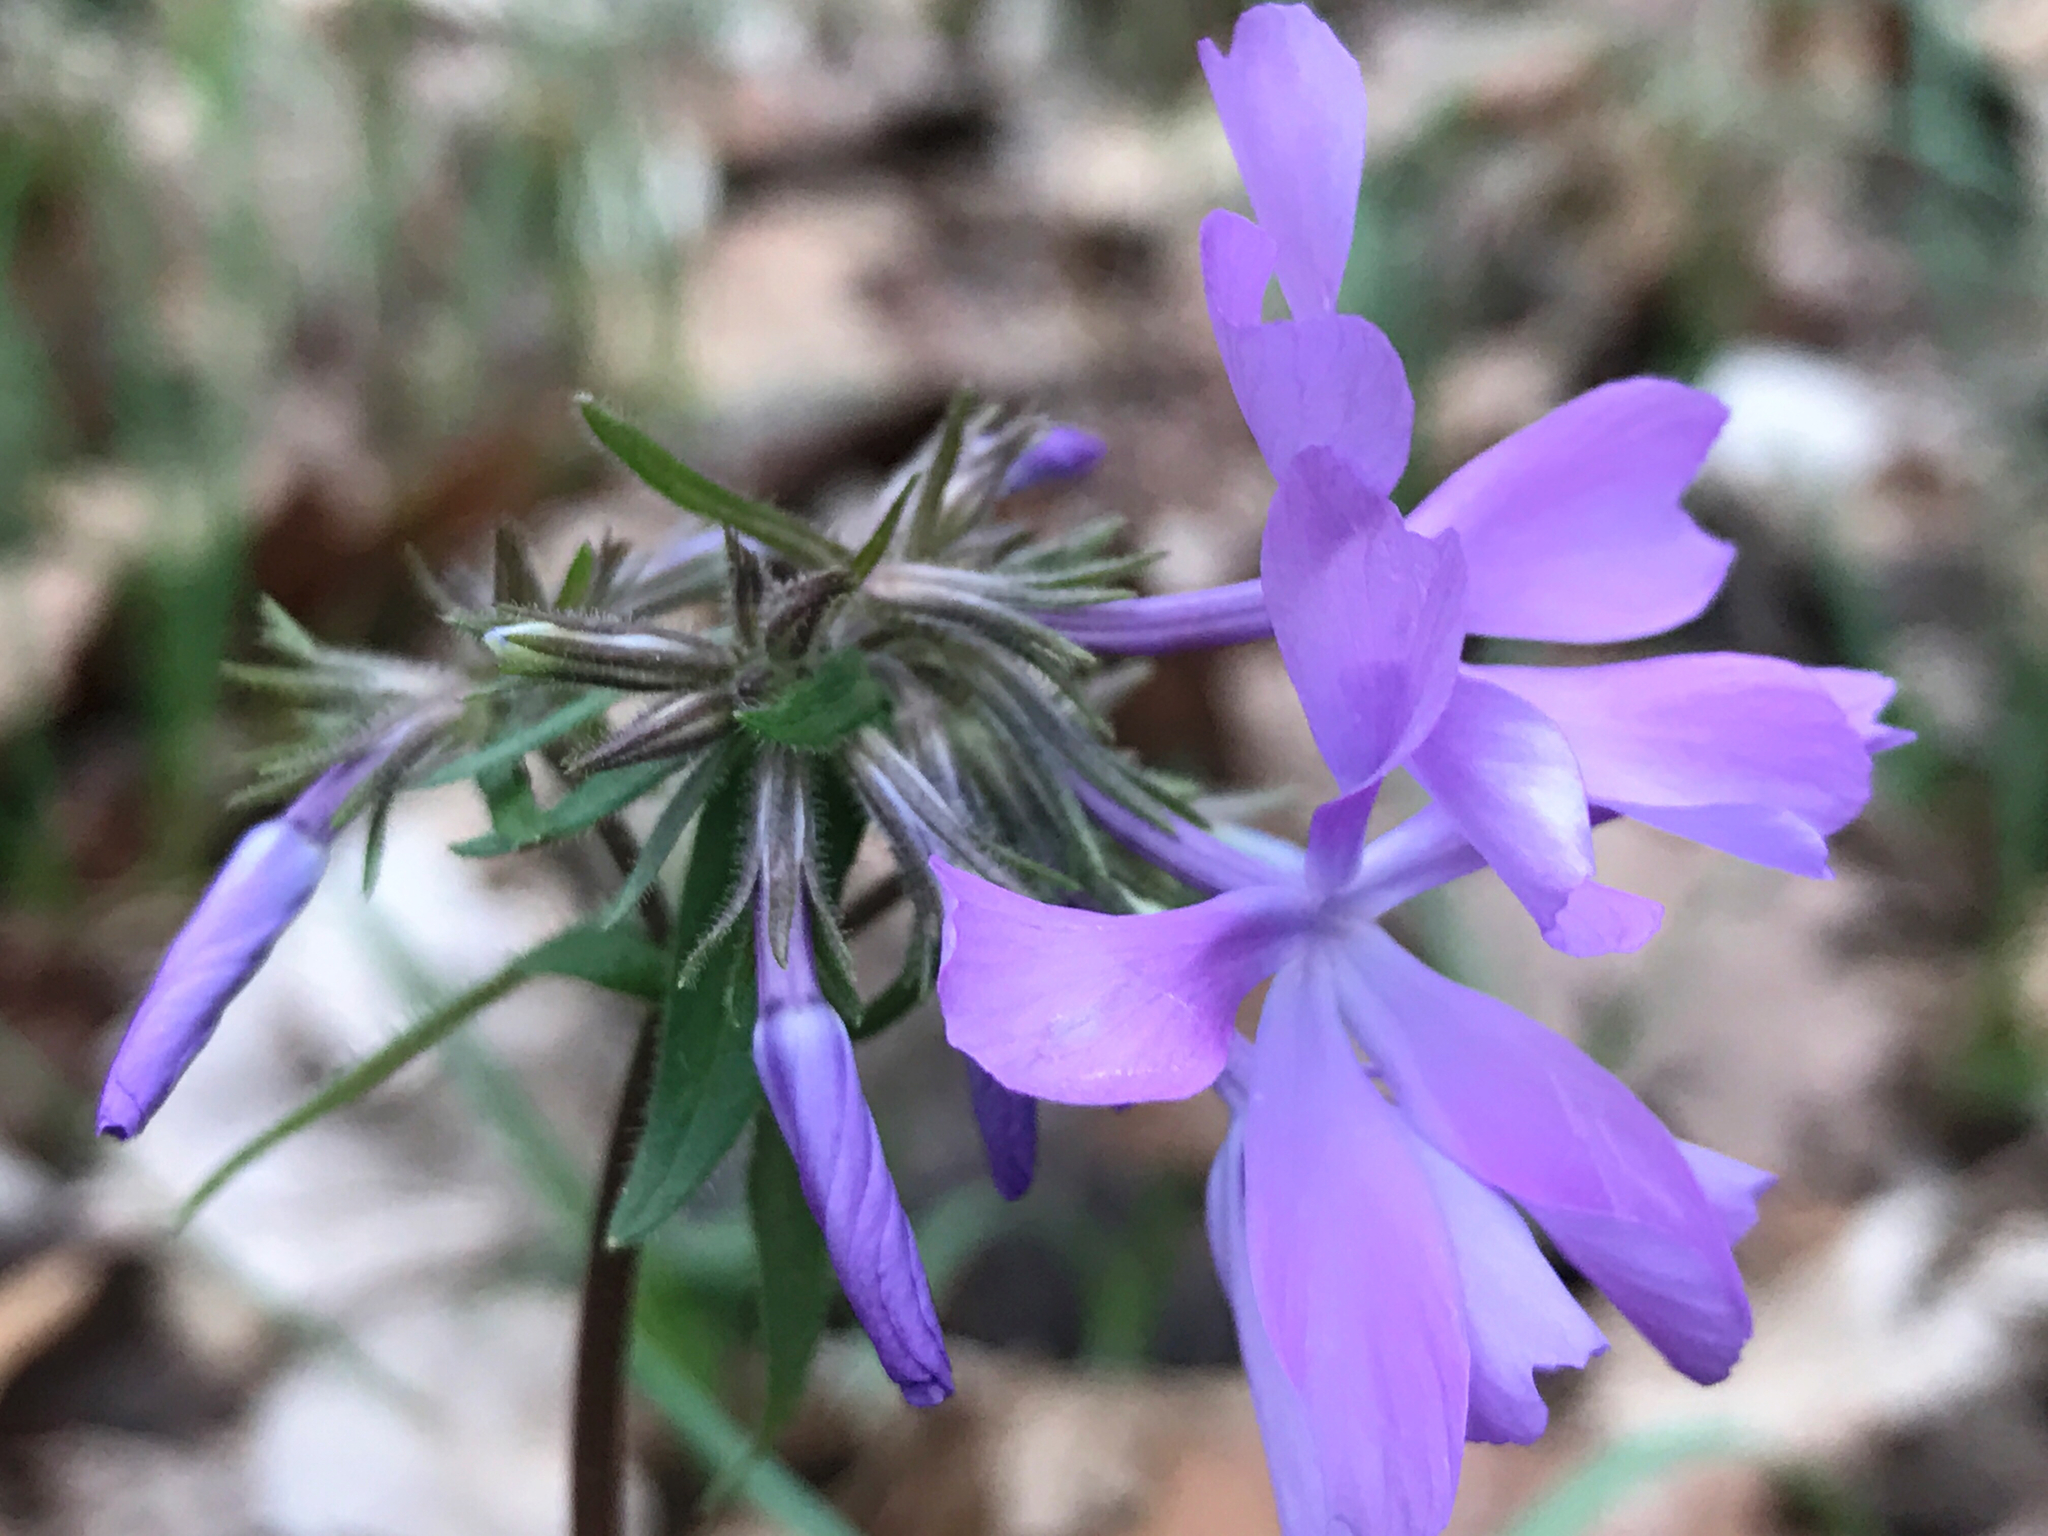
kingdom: Plantae
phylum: Tracheophyta
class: Magnoliopsida
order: Ericales
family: Polemoniaceae
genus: Phlox
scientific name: Phlox divaricata
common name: Blue phlox
